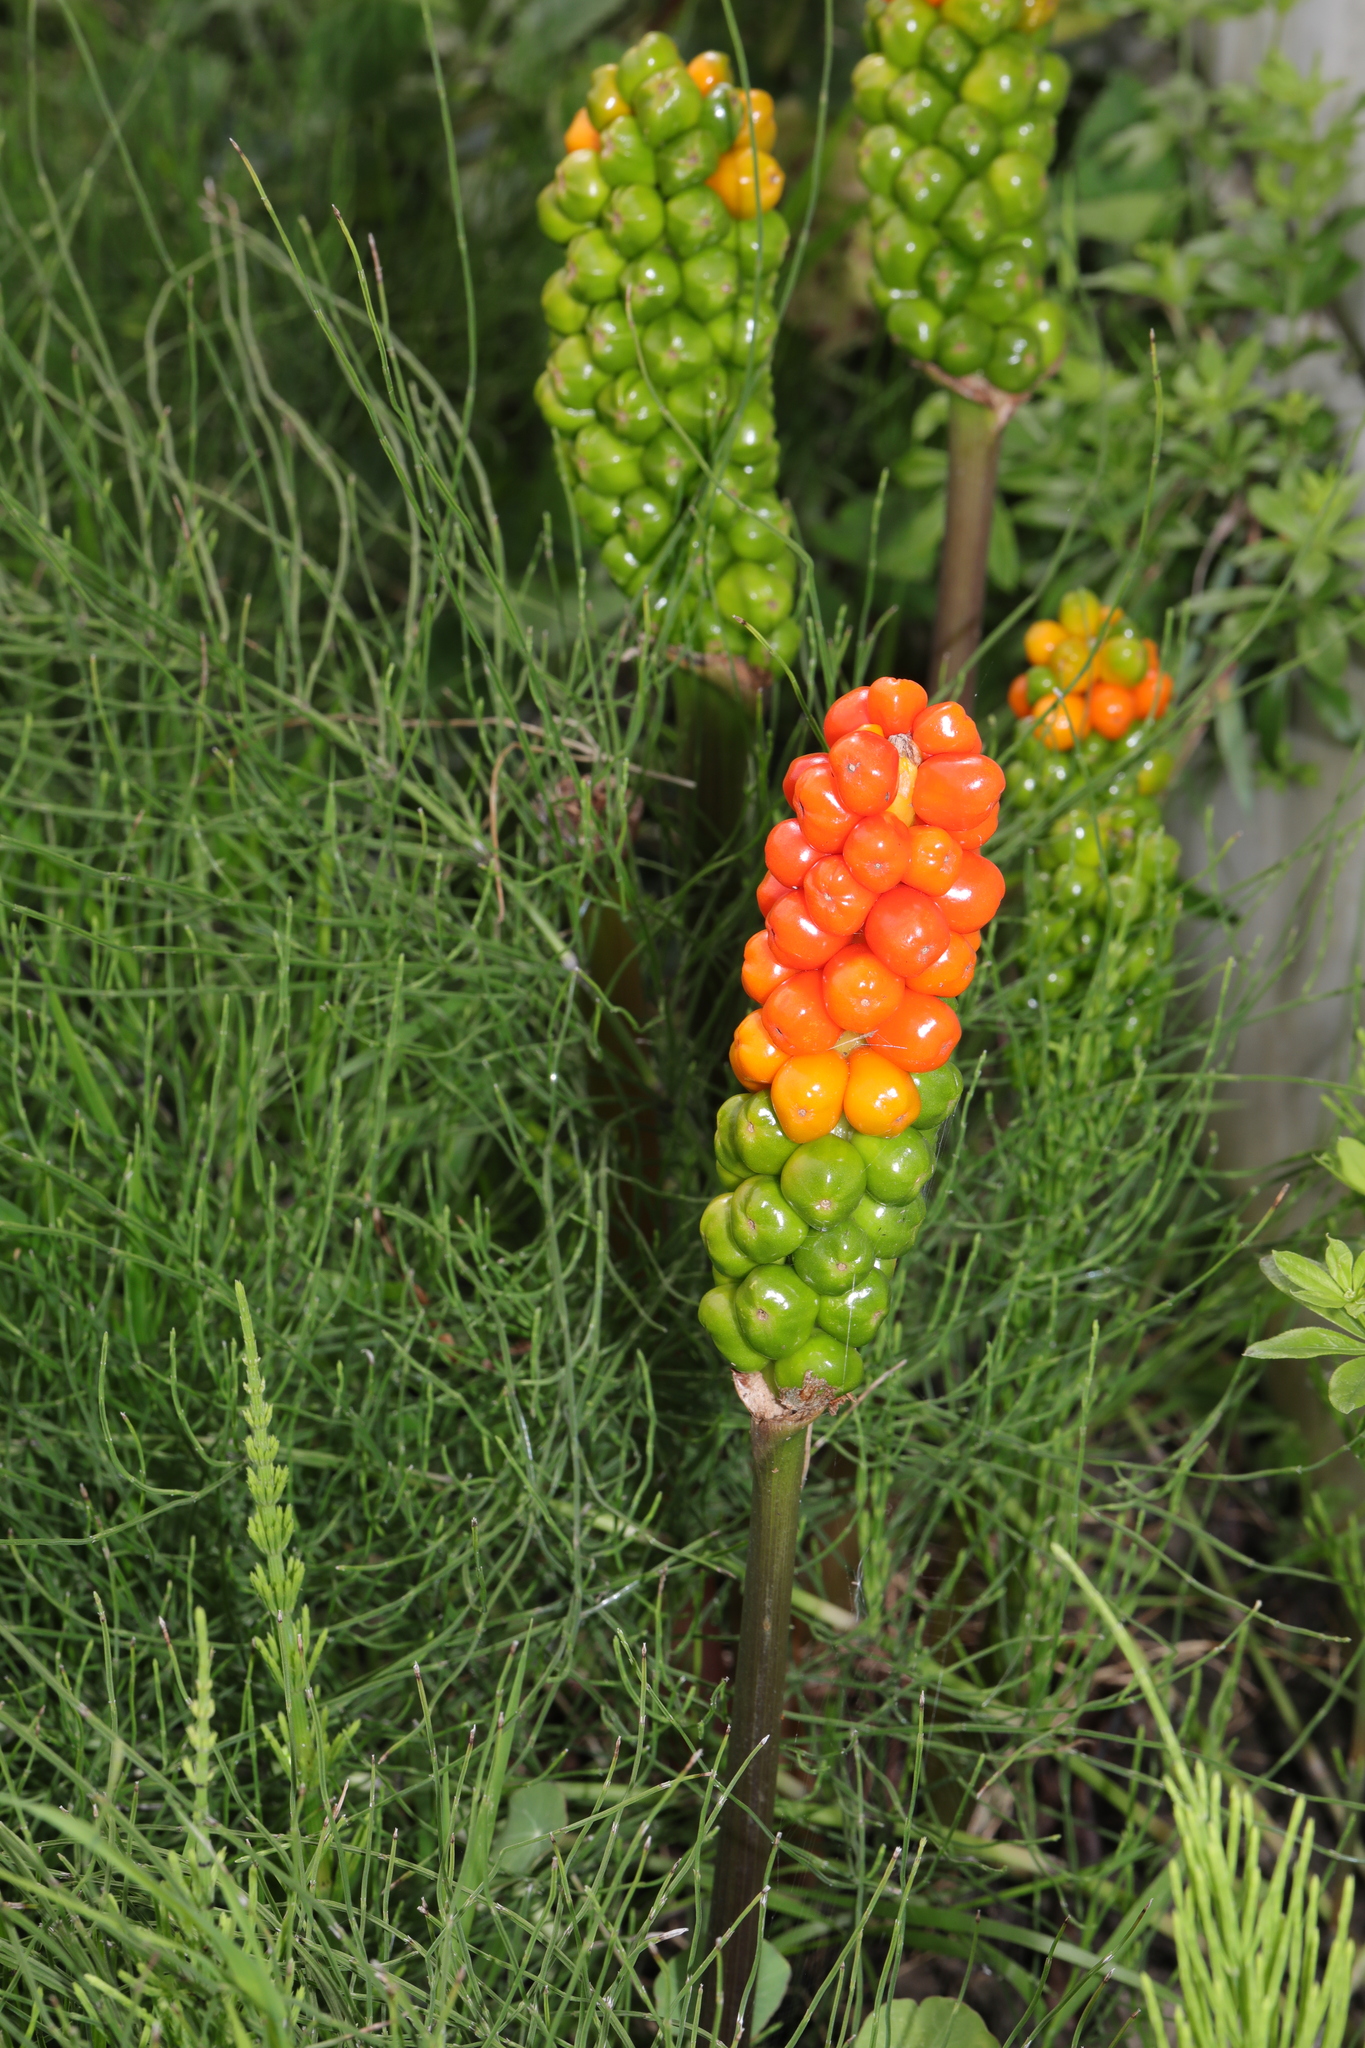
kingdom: Plantae
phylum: Tracheophyta
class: Liliopsida
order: Alismatales
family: Araceae
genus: Arum
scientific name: Arum italicum
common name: Italian lords-and-ladies
